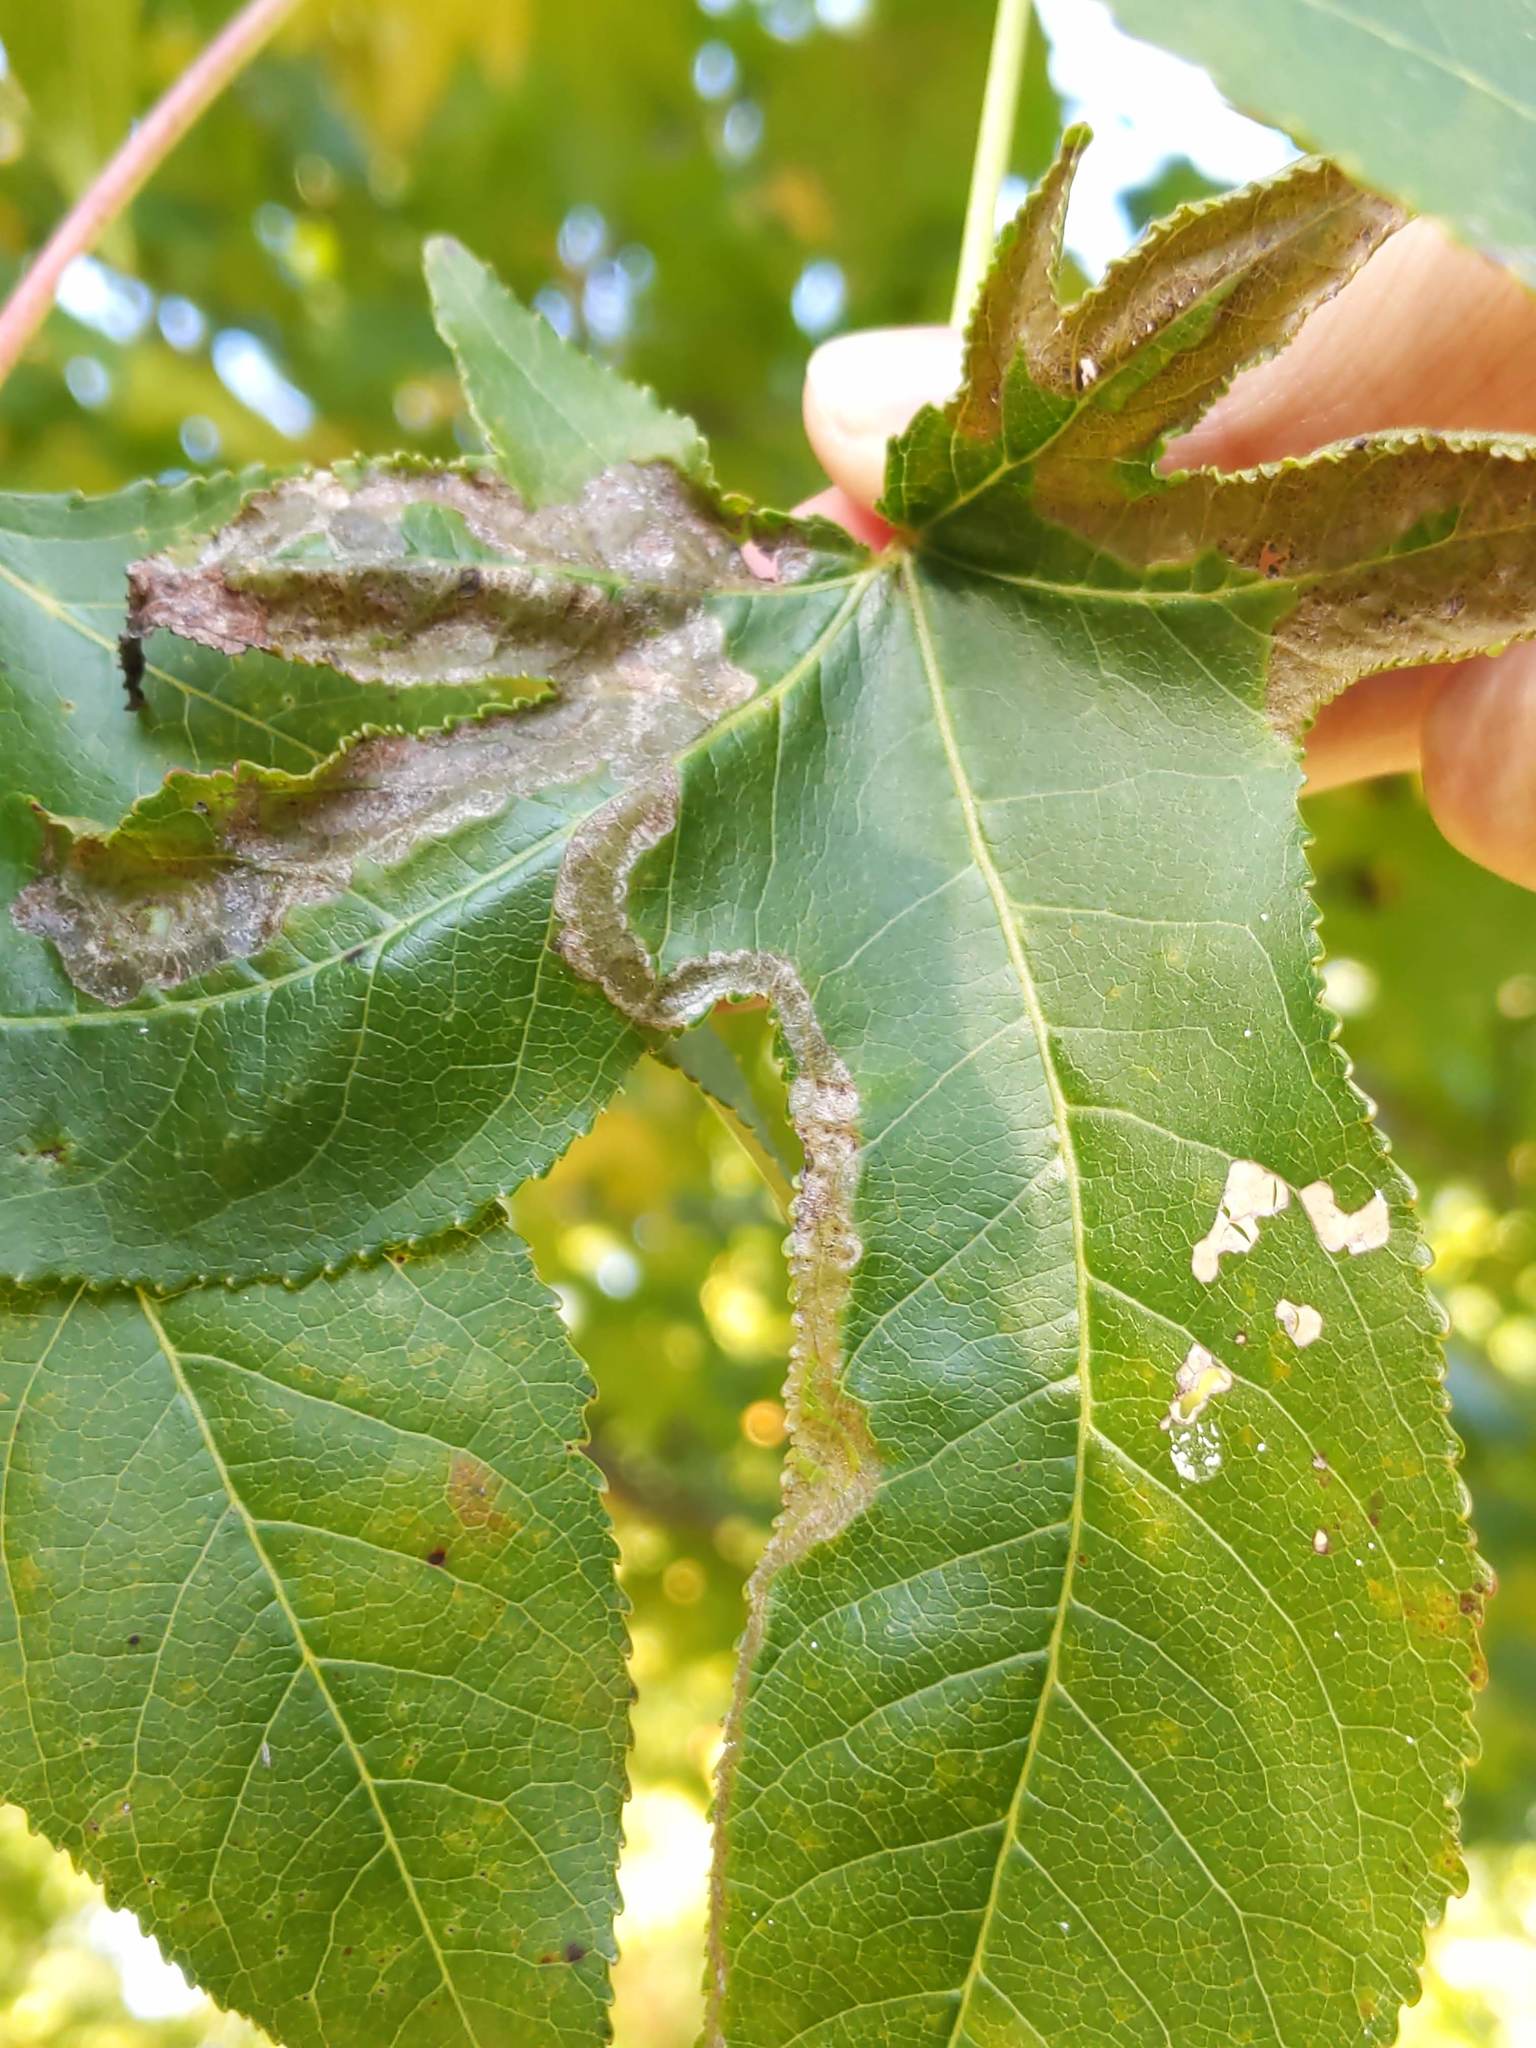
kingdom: Animalia
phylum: Arthropoda
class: Insecta
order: Lepidoptera
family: Gracillariidae
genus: Phyllocnistis
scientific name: Phyllocnistis liquidambarisella
